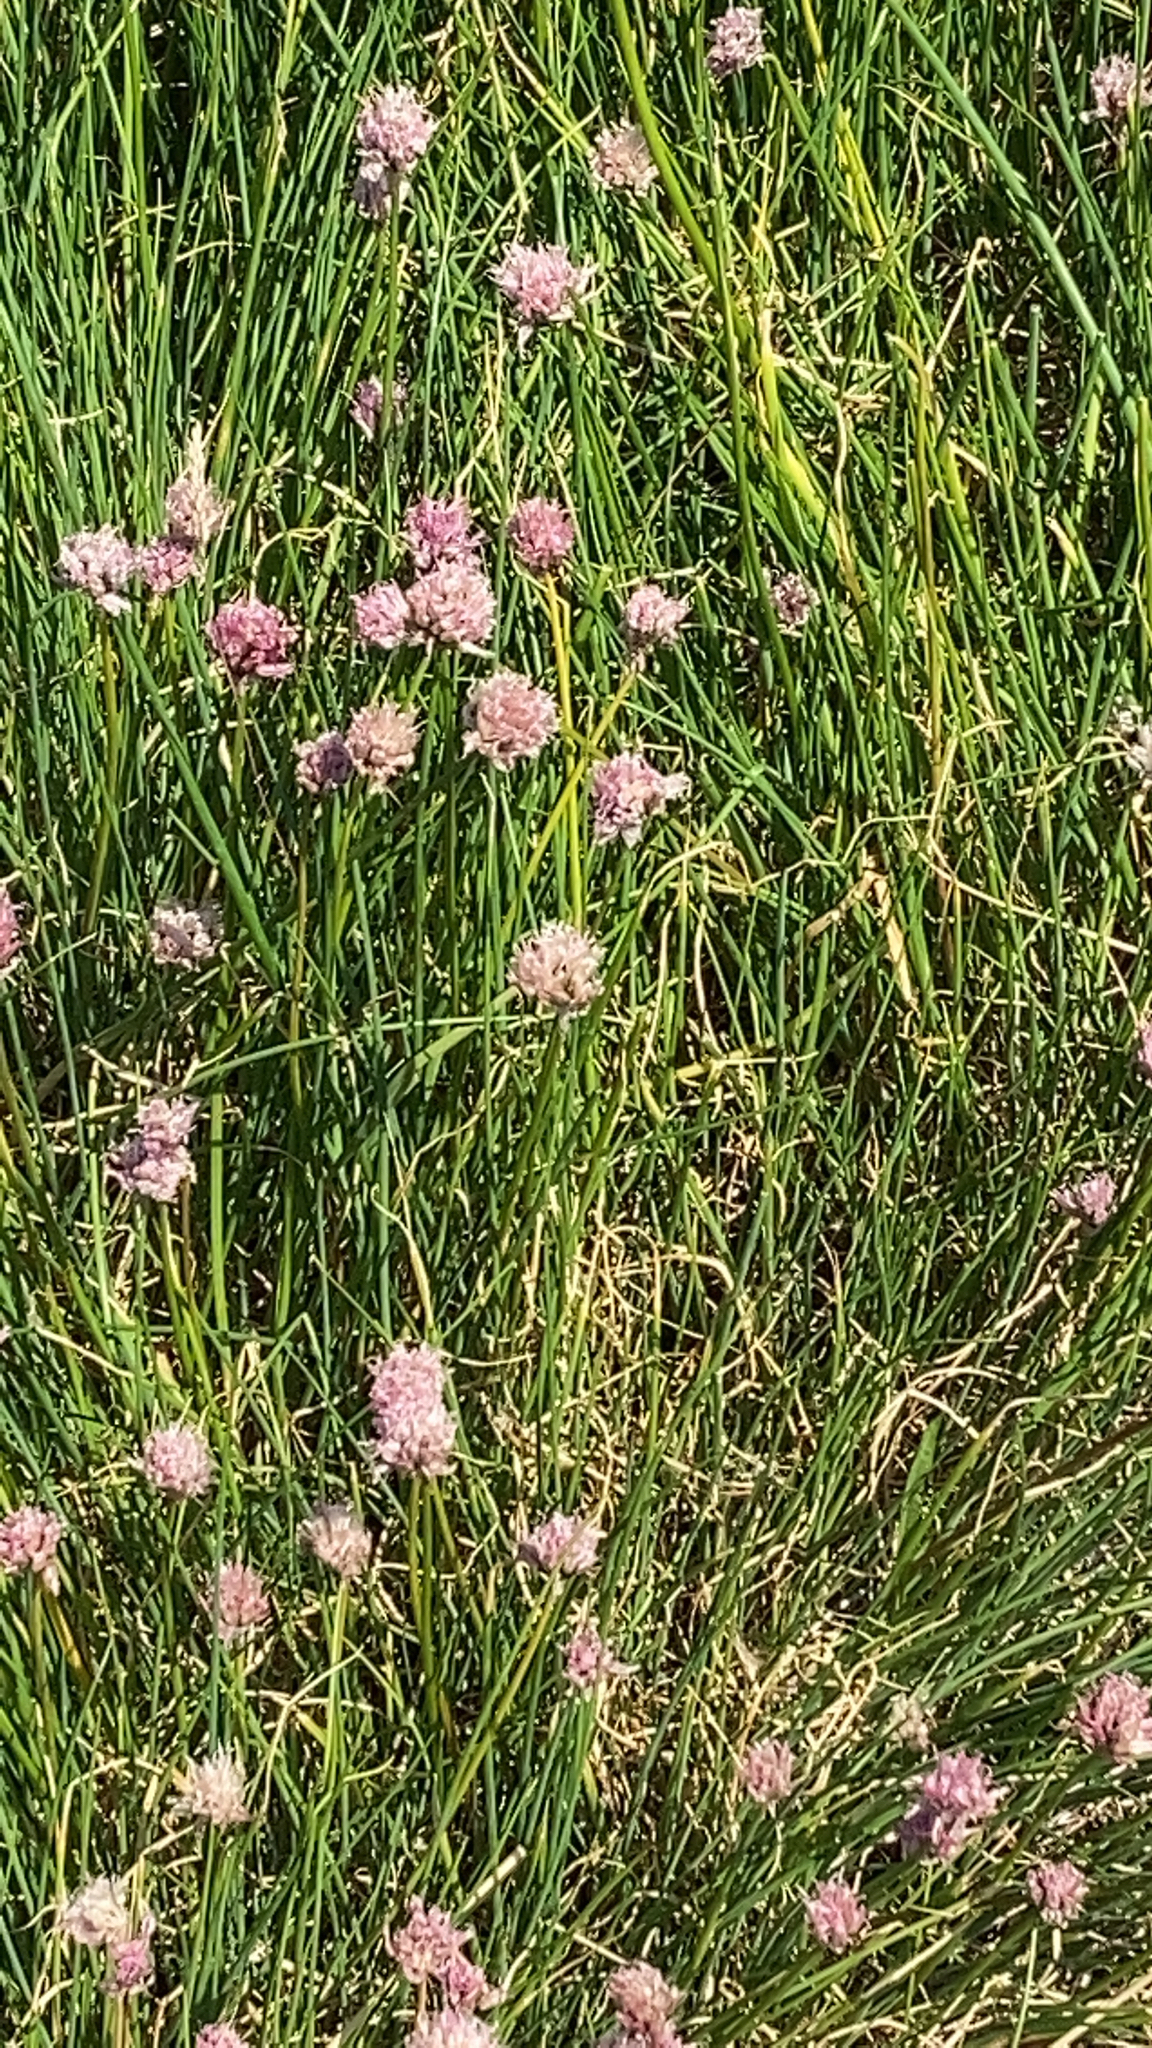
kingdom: Plantae
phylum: Tracheophyta
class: Liliopsida
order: Asparagales
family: Amaryllidaceae
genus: Allium
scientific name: Allium schoenoprasum
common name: Chives
